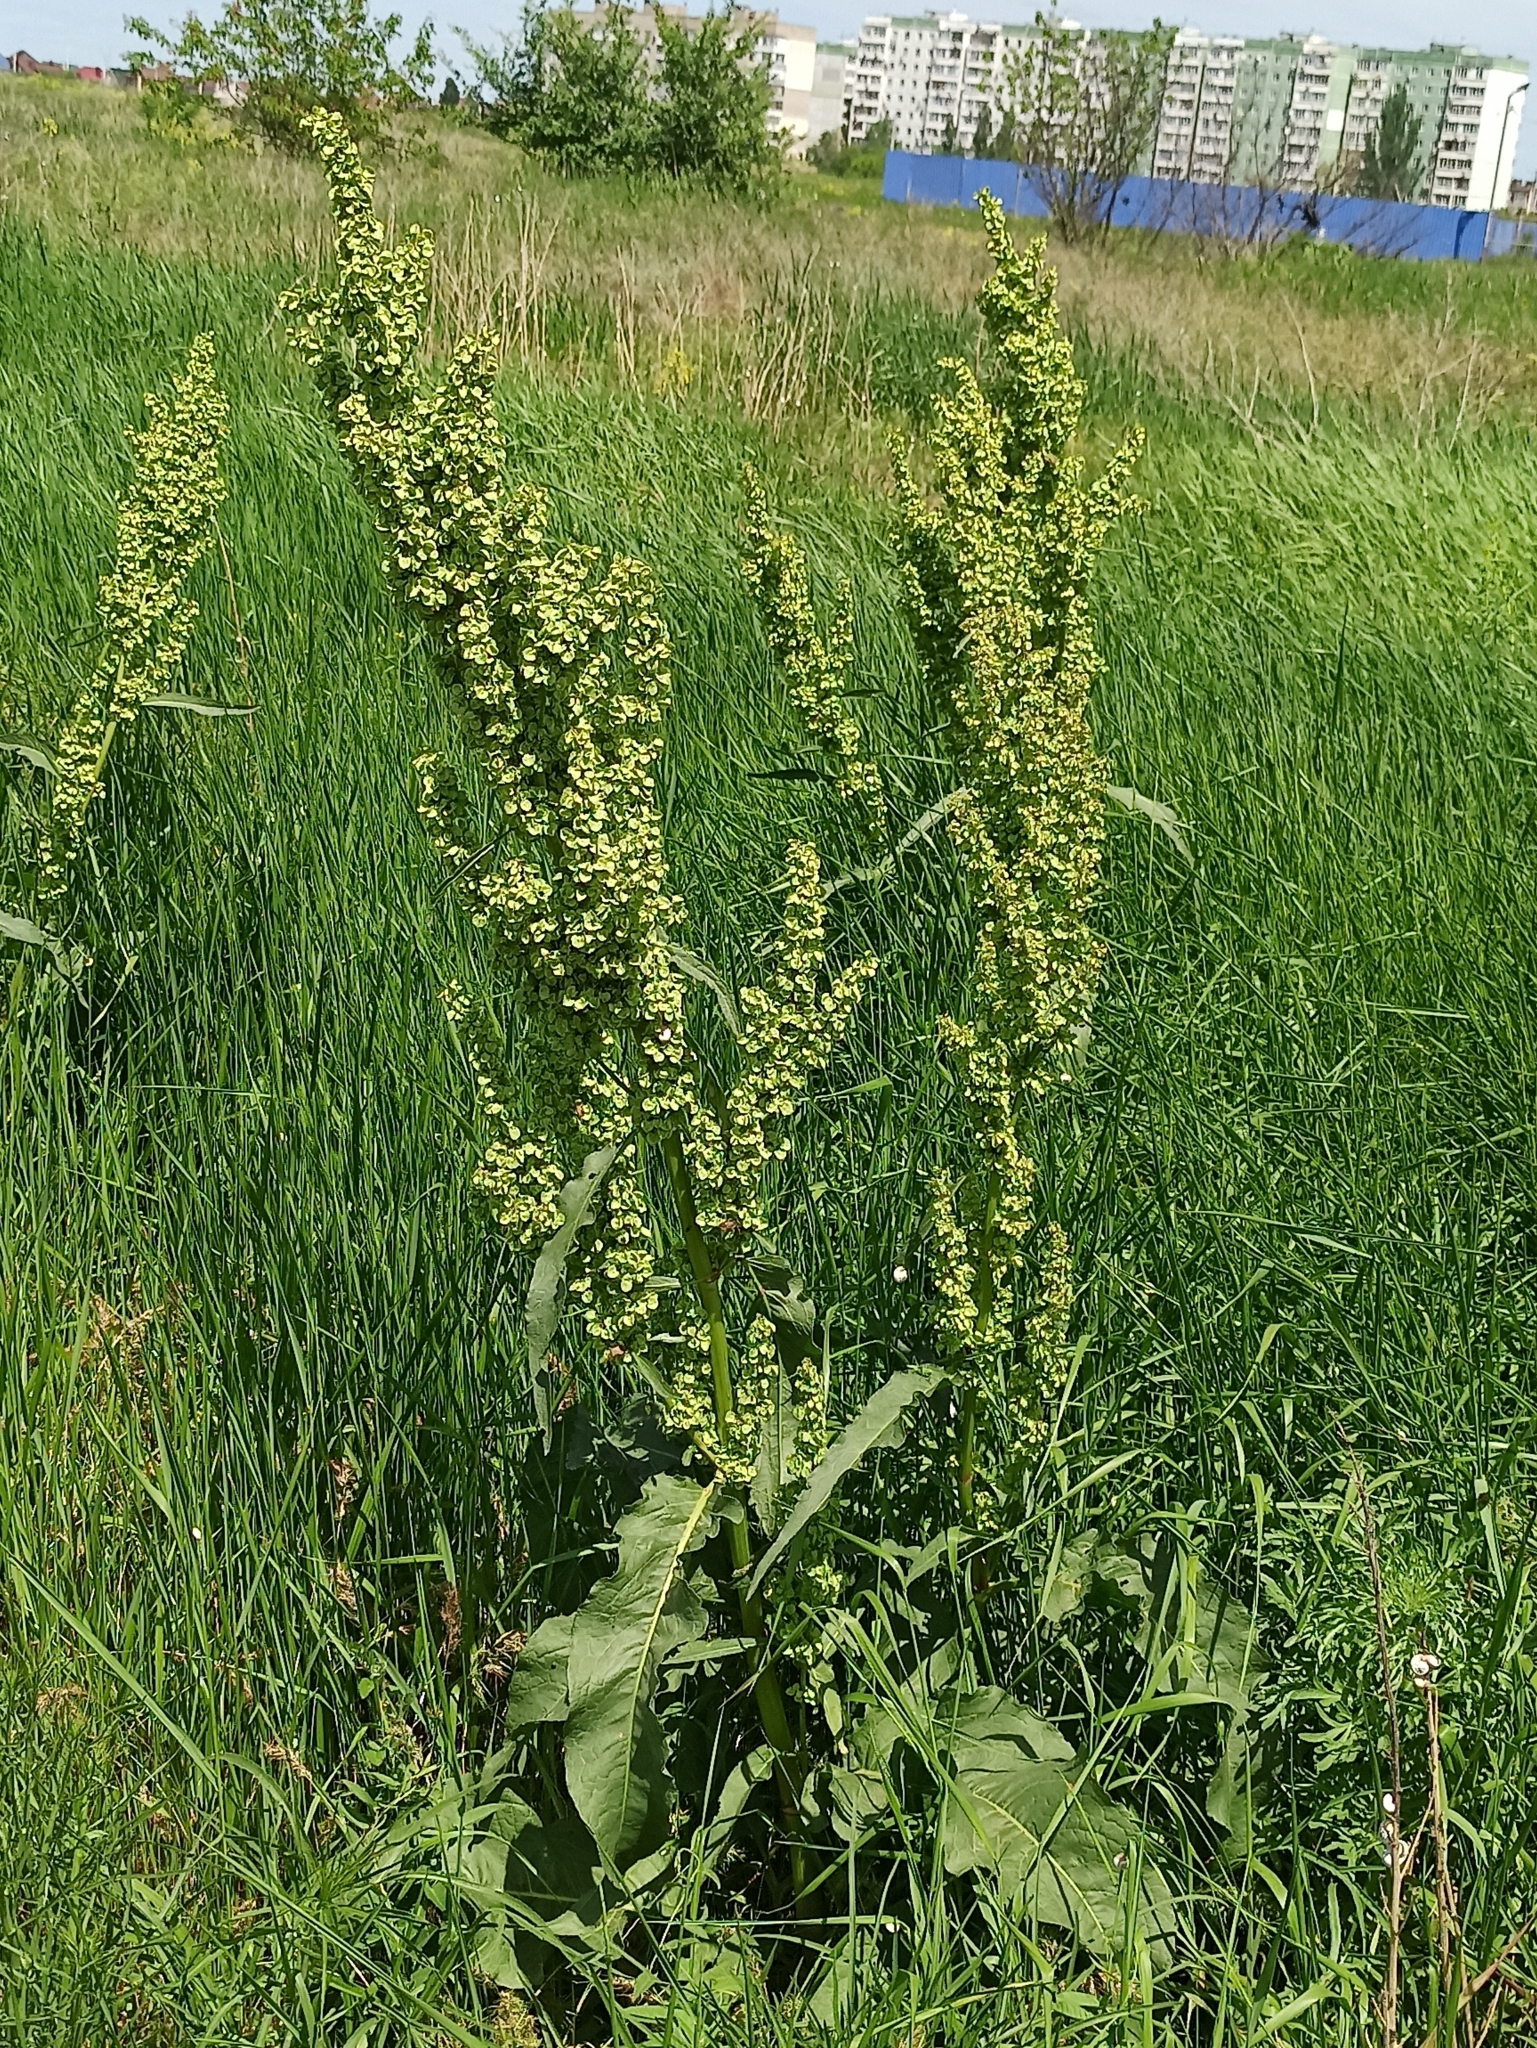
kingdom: Plantae
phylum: Tracheophyta
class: Magnoliopsida
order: Caryophyllales
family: Polygonaceae
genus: Rumex
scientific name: Rumex patientia
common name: Patience dock
